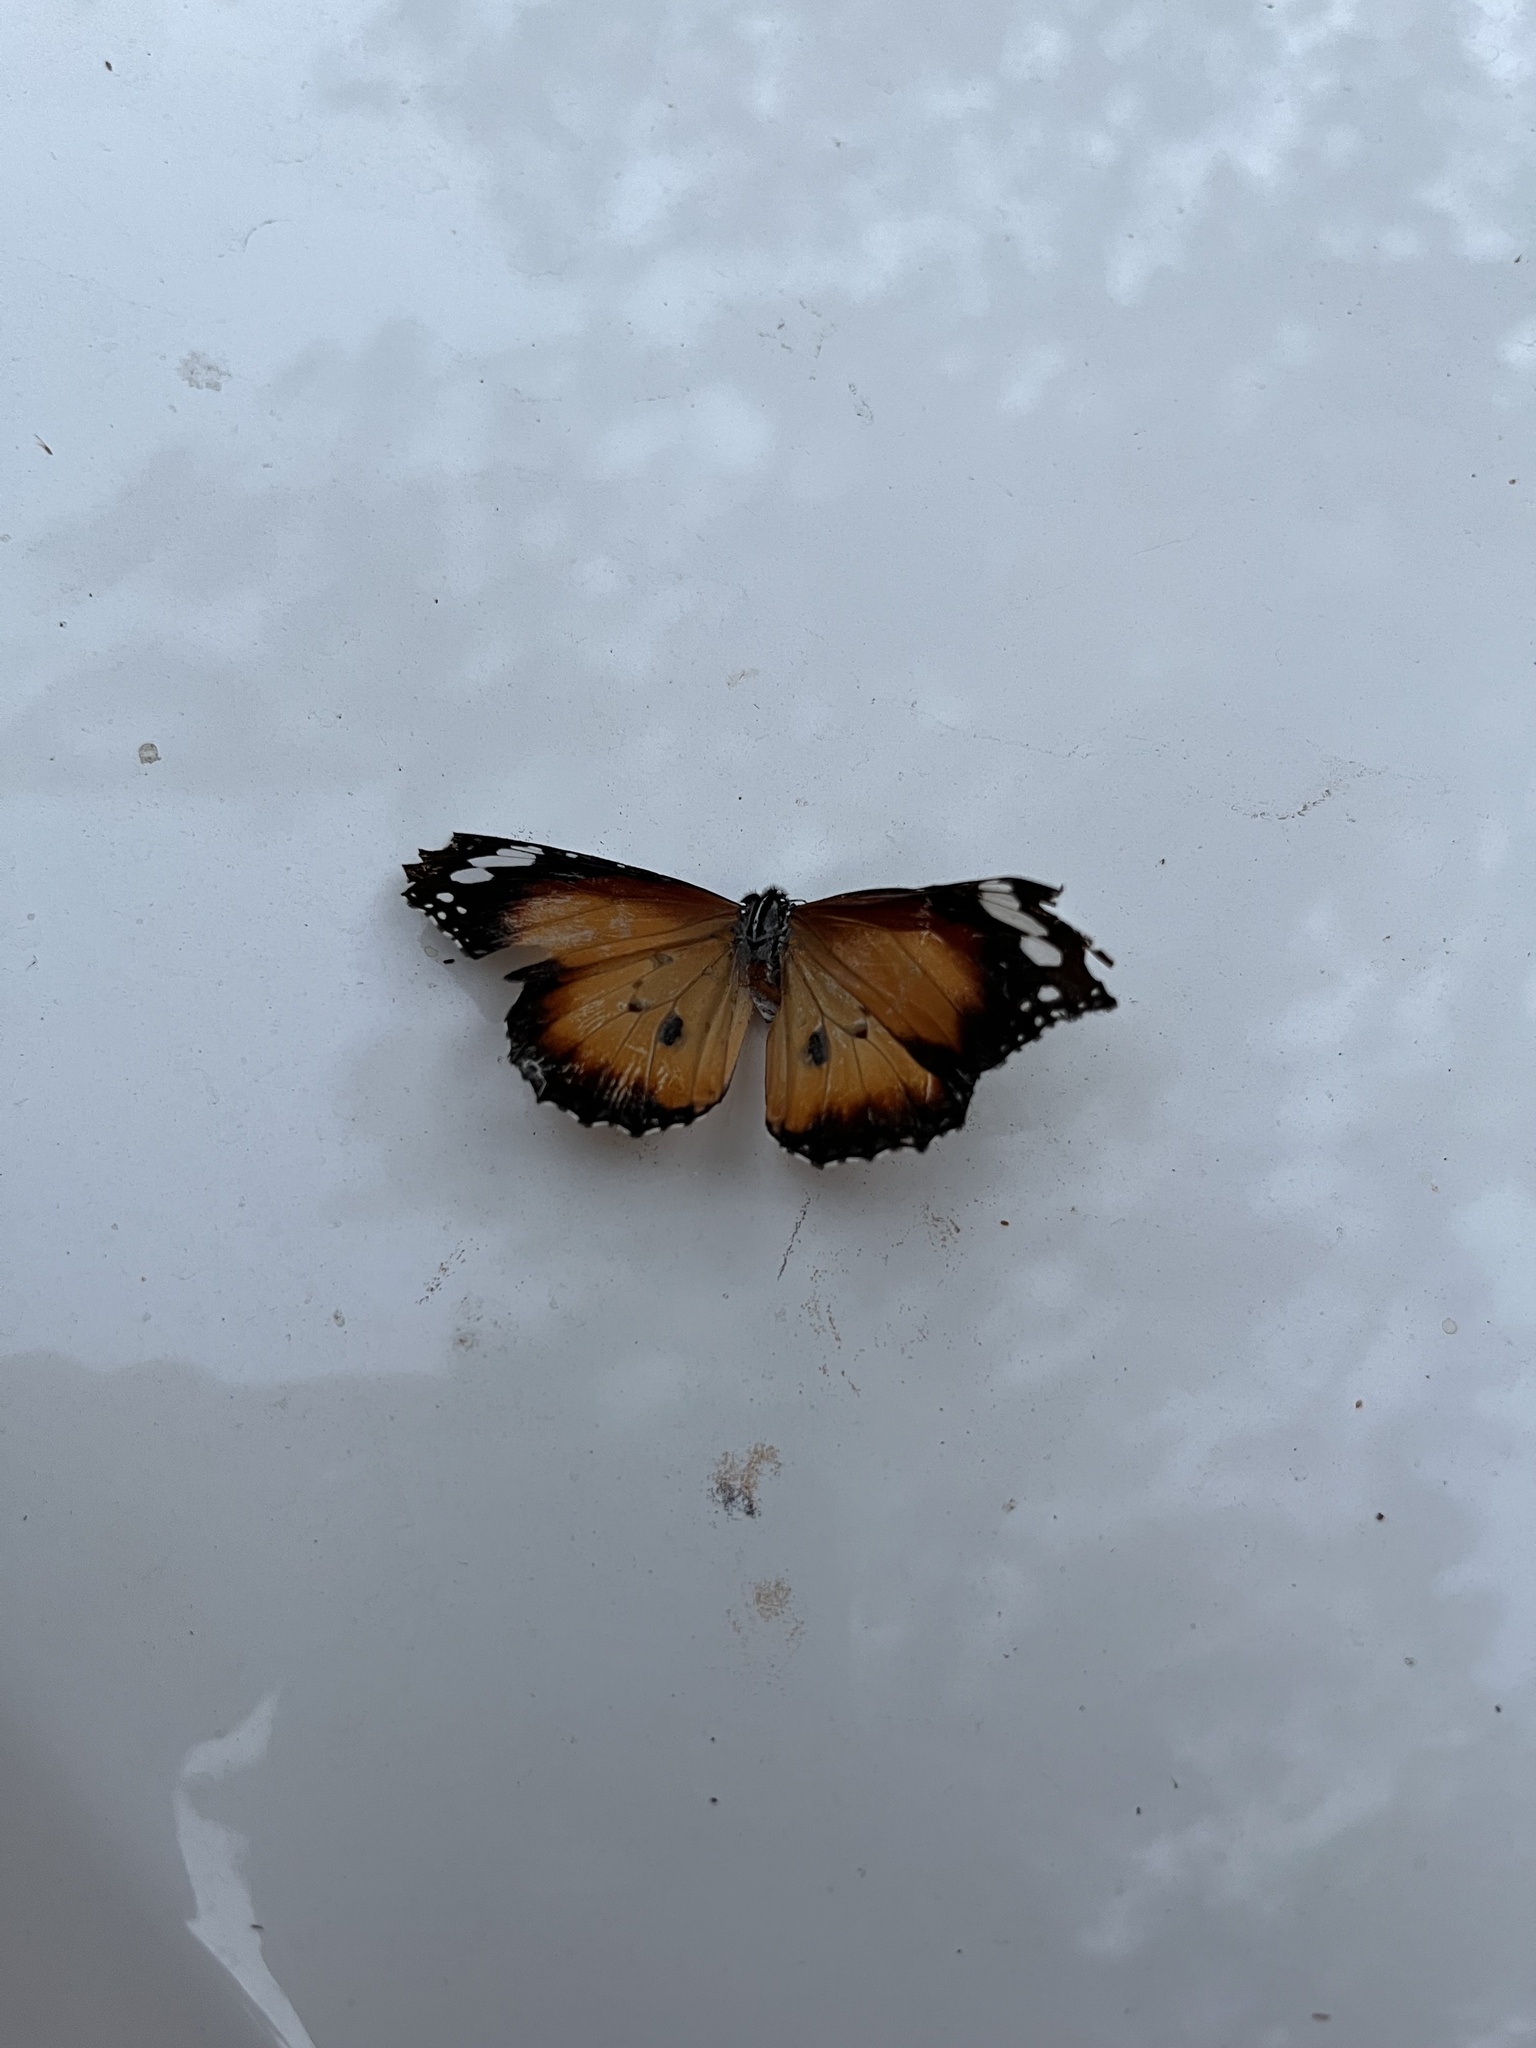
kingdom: Animalia
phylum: Arthropoda
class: Insecta
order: Lepidoptera
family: Nymphalidae
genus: Danaus
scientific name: Danaus chrysippus
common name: Plain tiger
